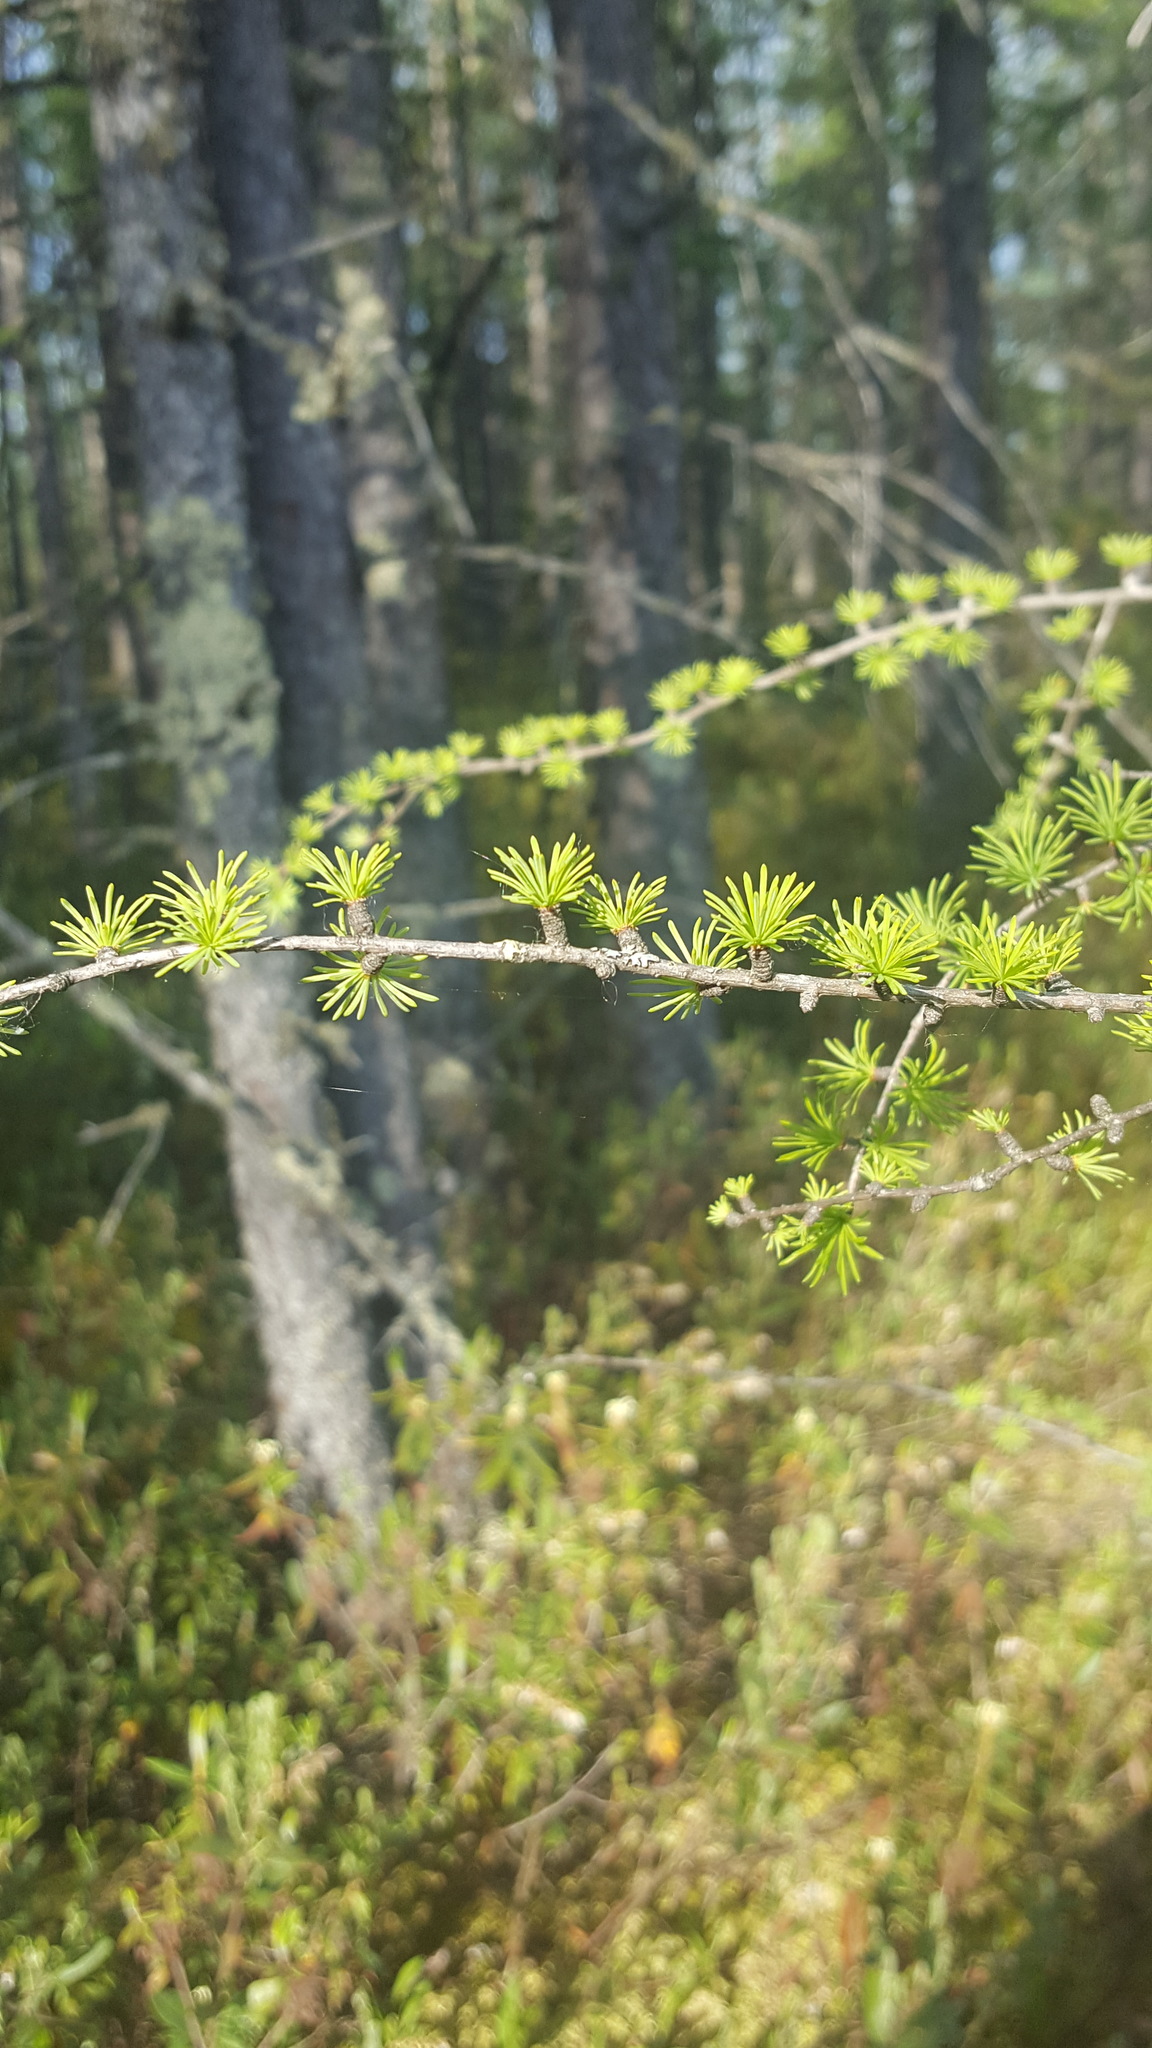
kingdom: Plantae
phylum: Tracheophyta
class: Pinopsida
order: Pinales
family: Pinaceae
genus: Larix
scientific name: Larix laricina
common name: American larch
